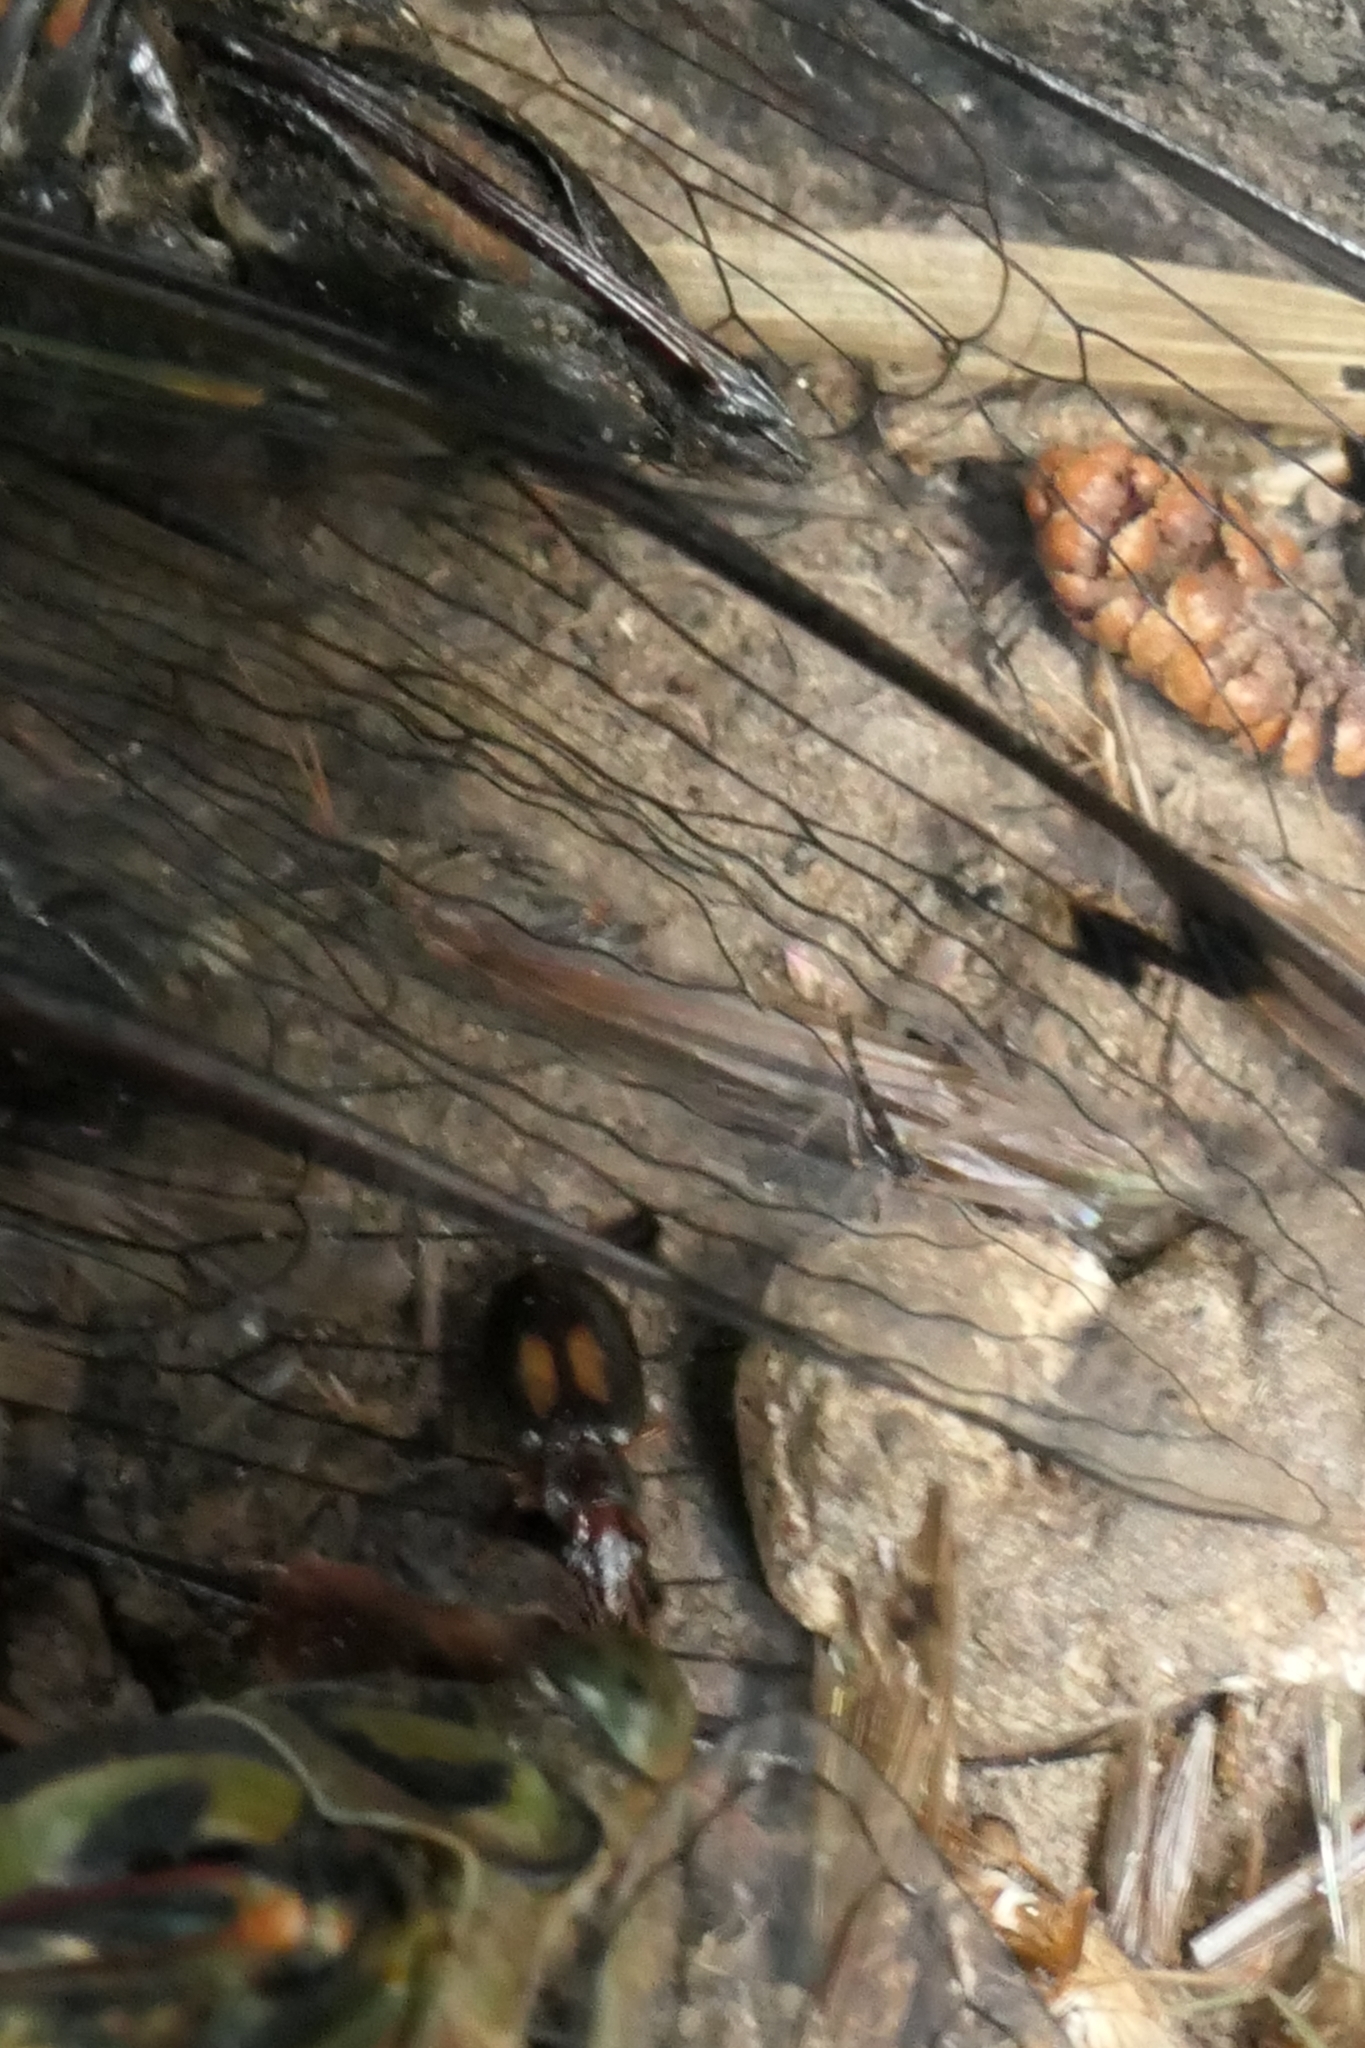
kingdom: Animalia
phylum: Arthropoda
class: Insecta
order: Coleoptera
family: Carabidae
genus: Agonocheila
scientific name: Agonocheila antipodum
